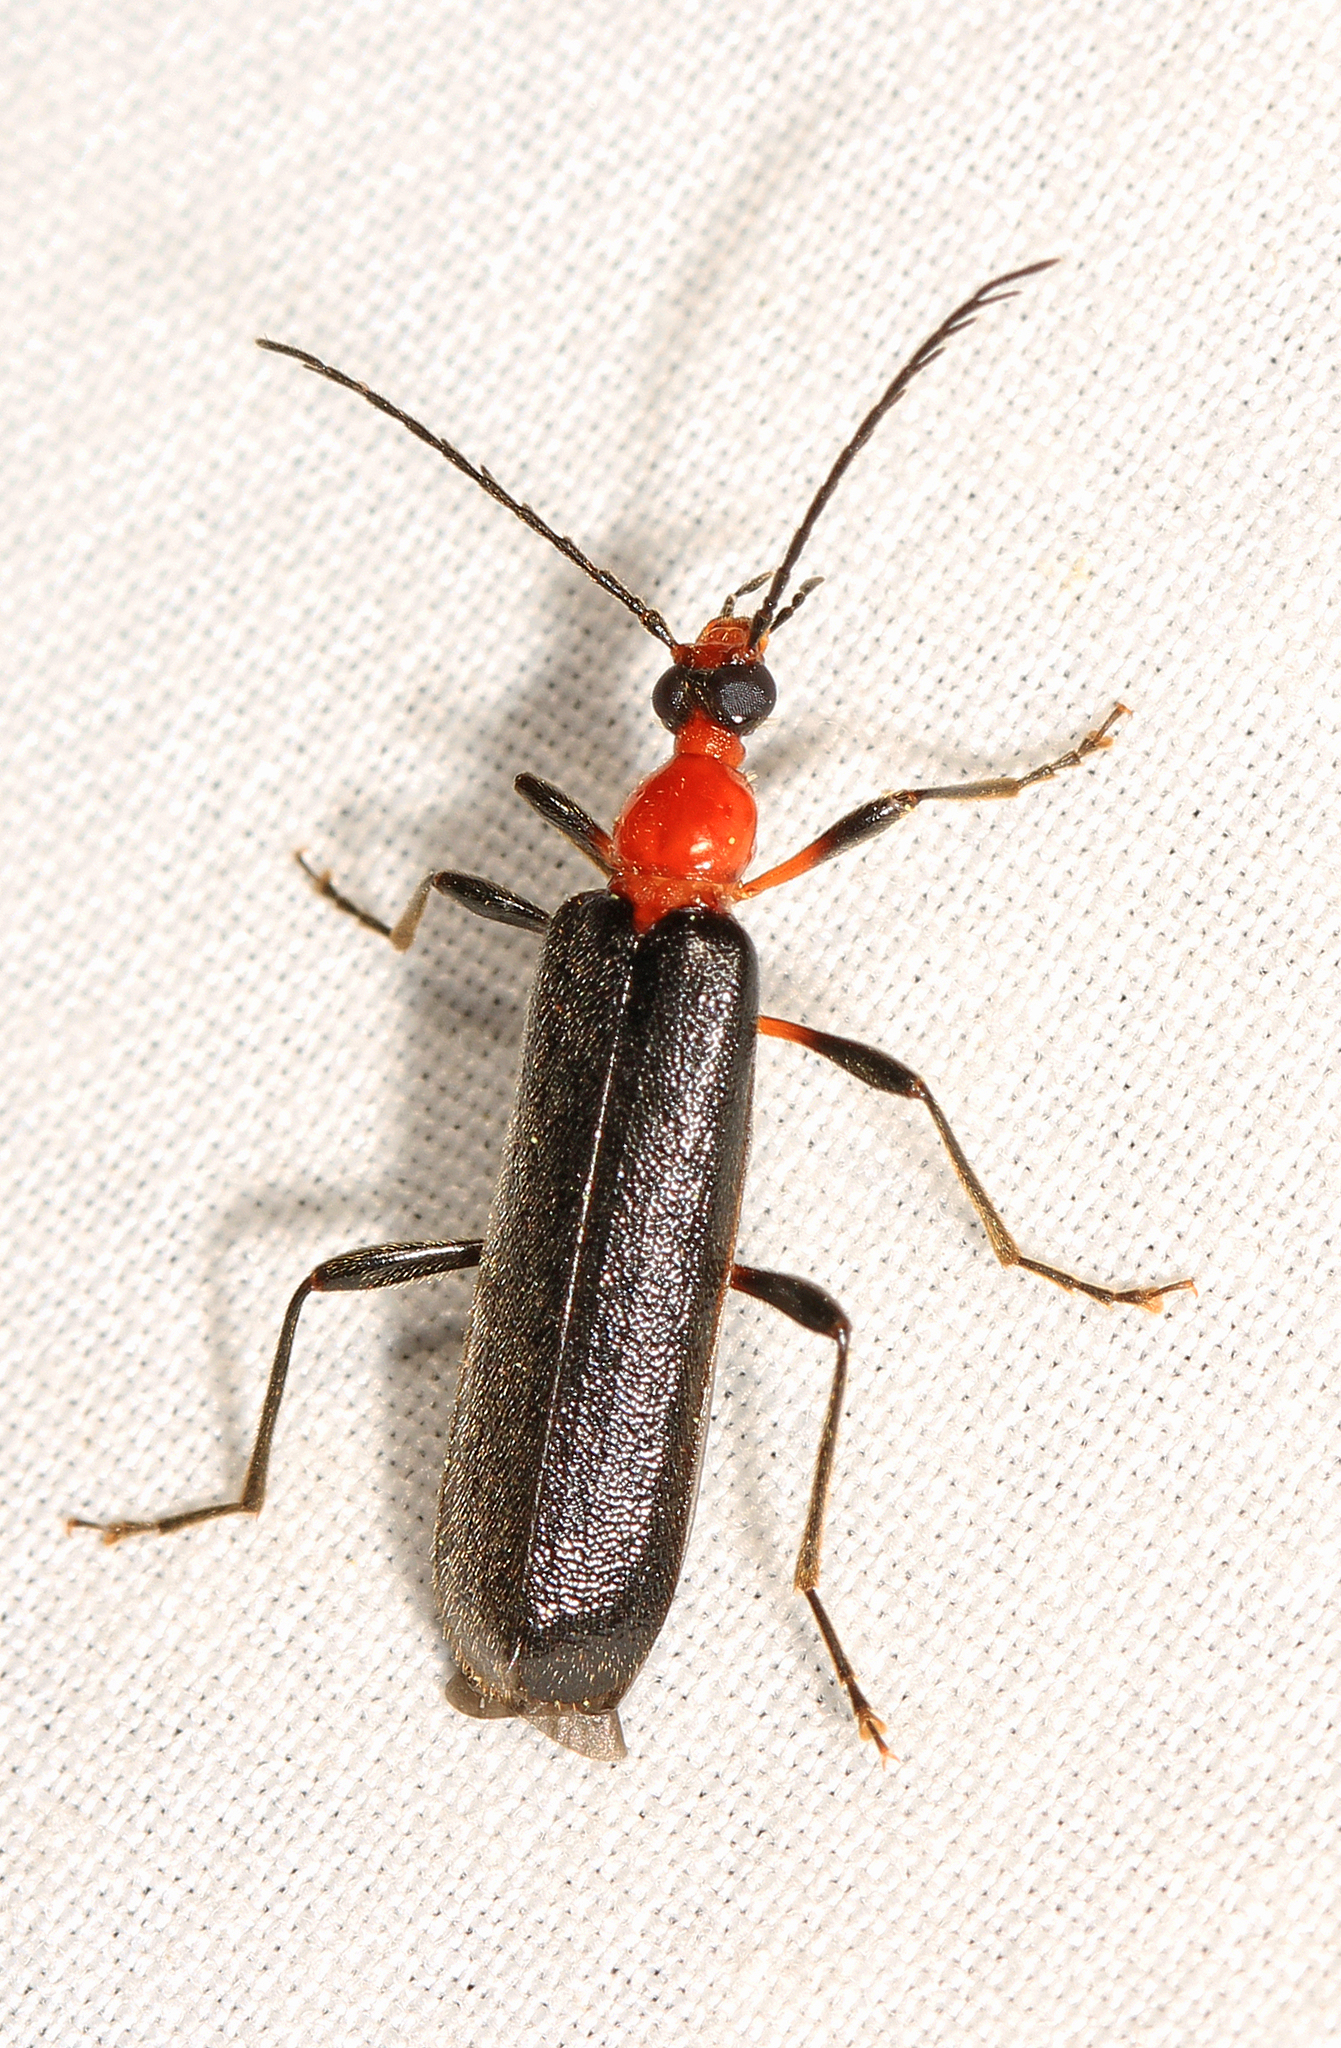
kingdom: Animalia
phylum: Arthropoda
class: Insecta
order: Coleoptera
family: Pyrochroidae
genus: Dendroides
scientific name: Dendroides picipes
